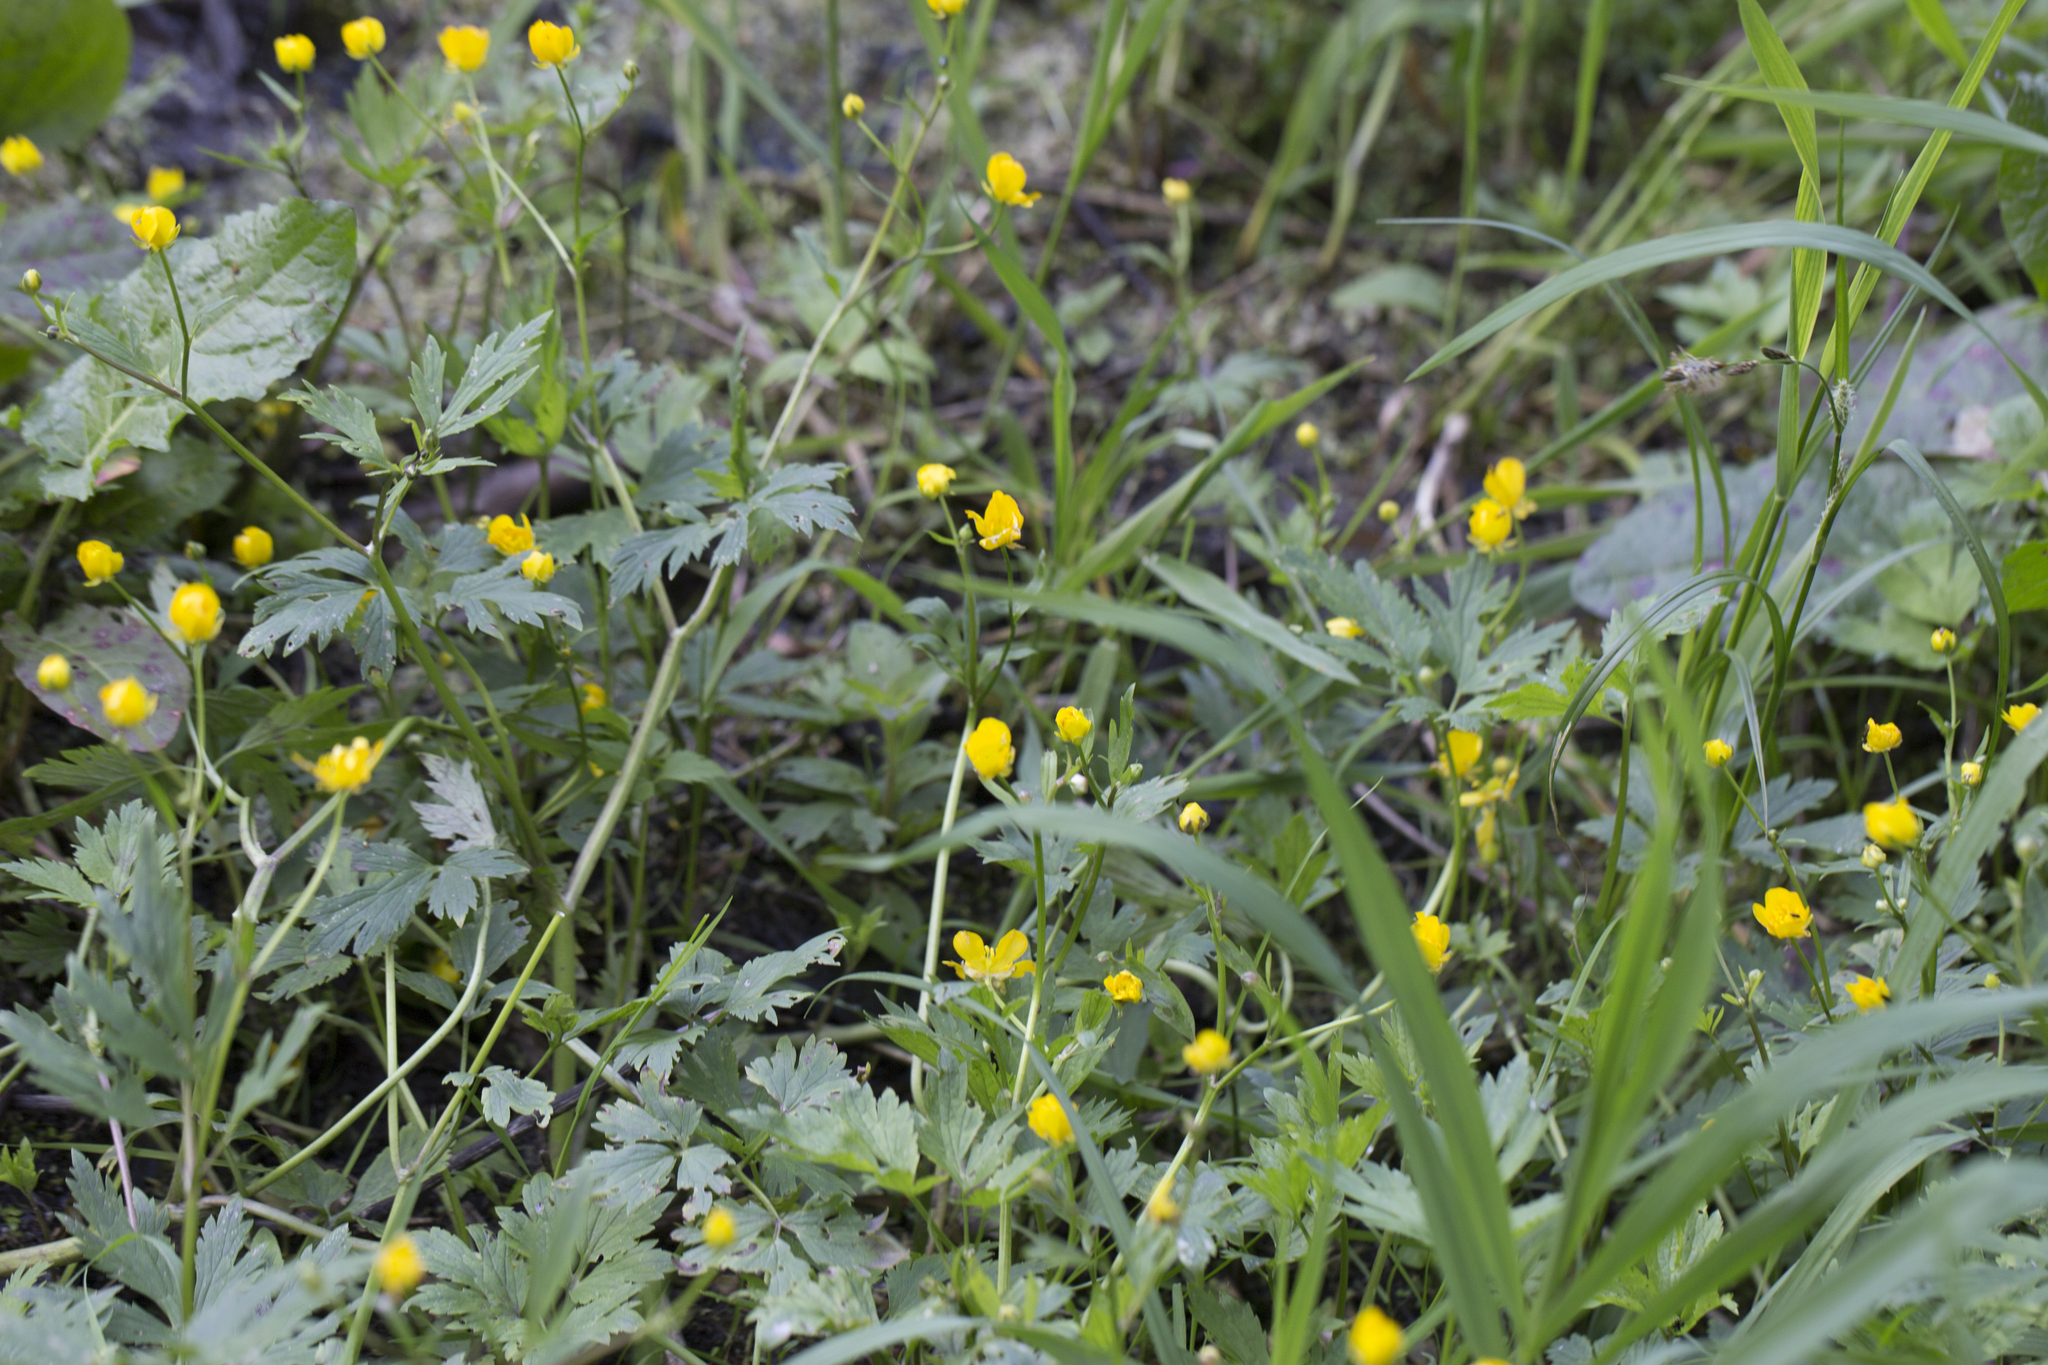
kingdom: Plantae
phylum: Tracheophyta
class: Magnoliopsida
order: Ranunculales
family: Ranunculaceae
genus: Ranunculus
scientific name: Ranunculus repens
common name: Creeping buttercup
